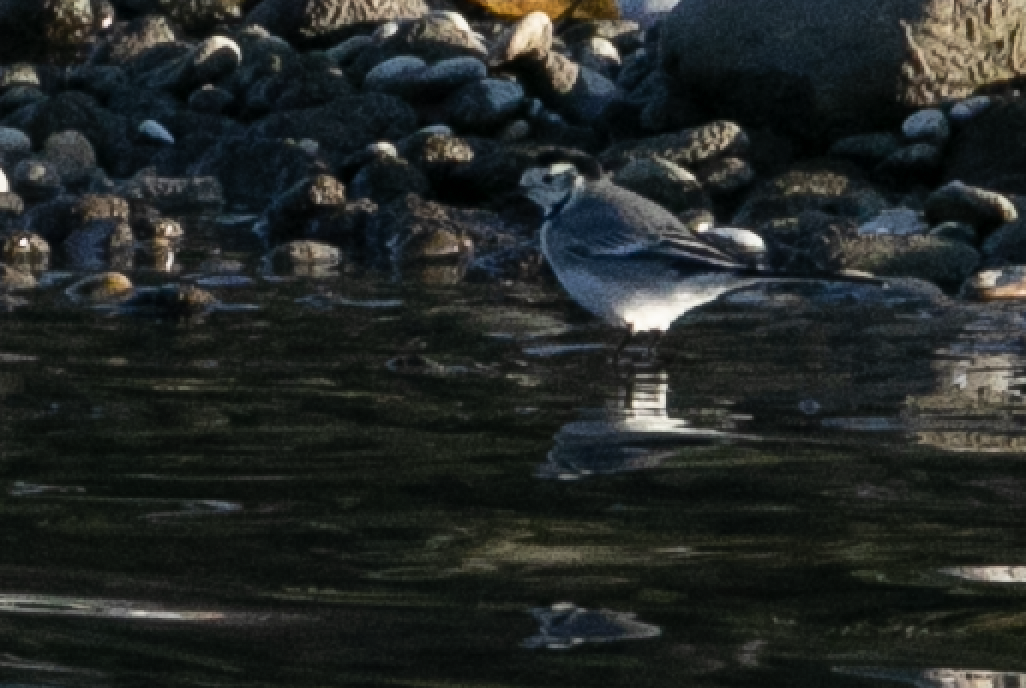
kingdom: Animalia
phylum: Chordata
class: Aves
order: Passeriformes
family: Motacillidae
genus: Motacilla
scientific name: Motacilla alba
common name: White wagtail
